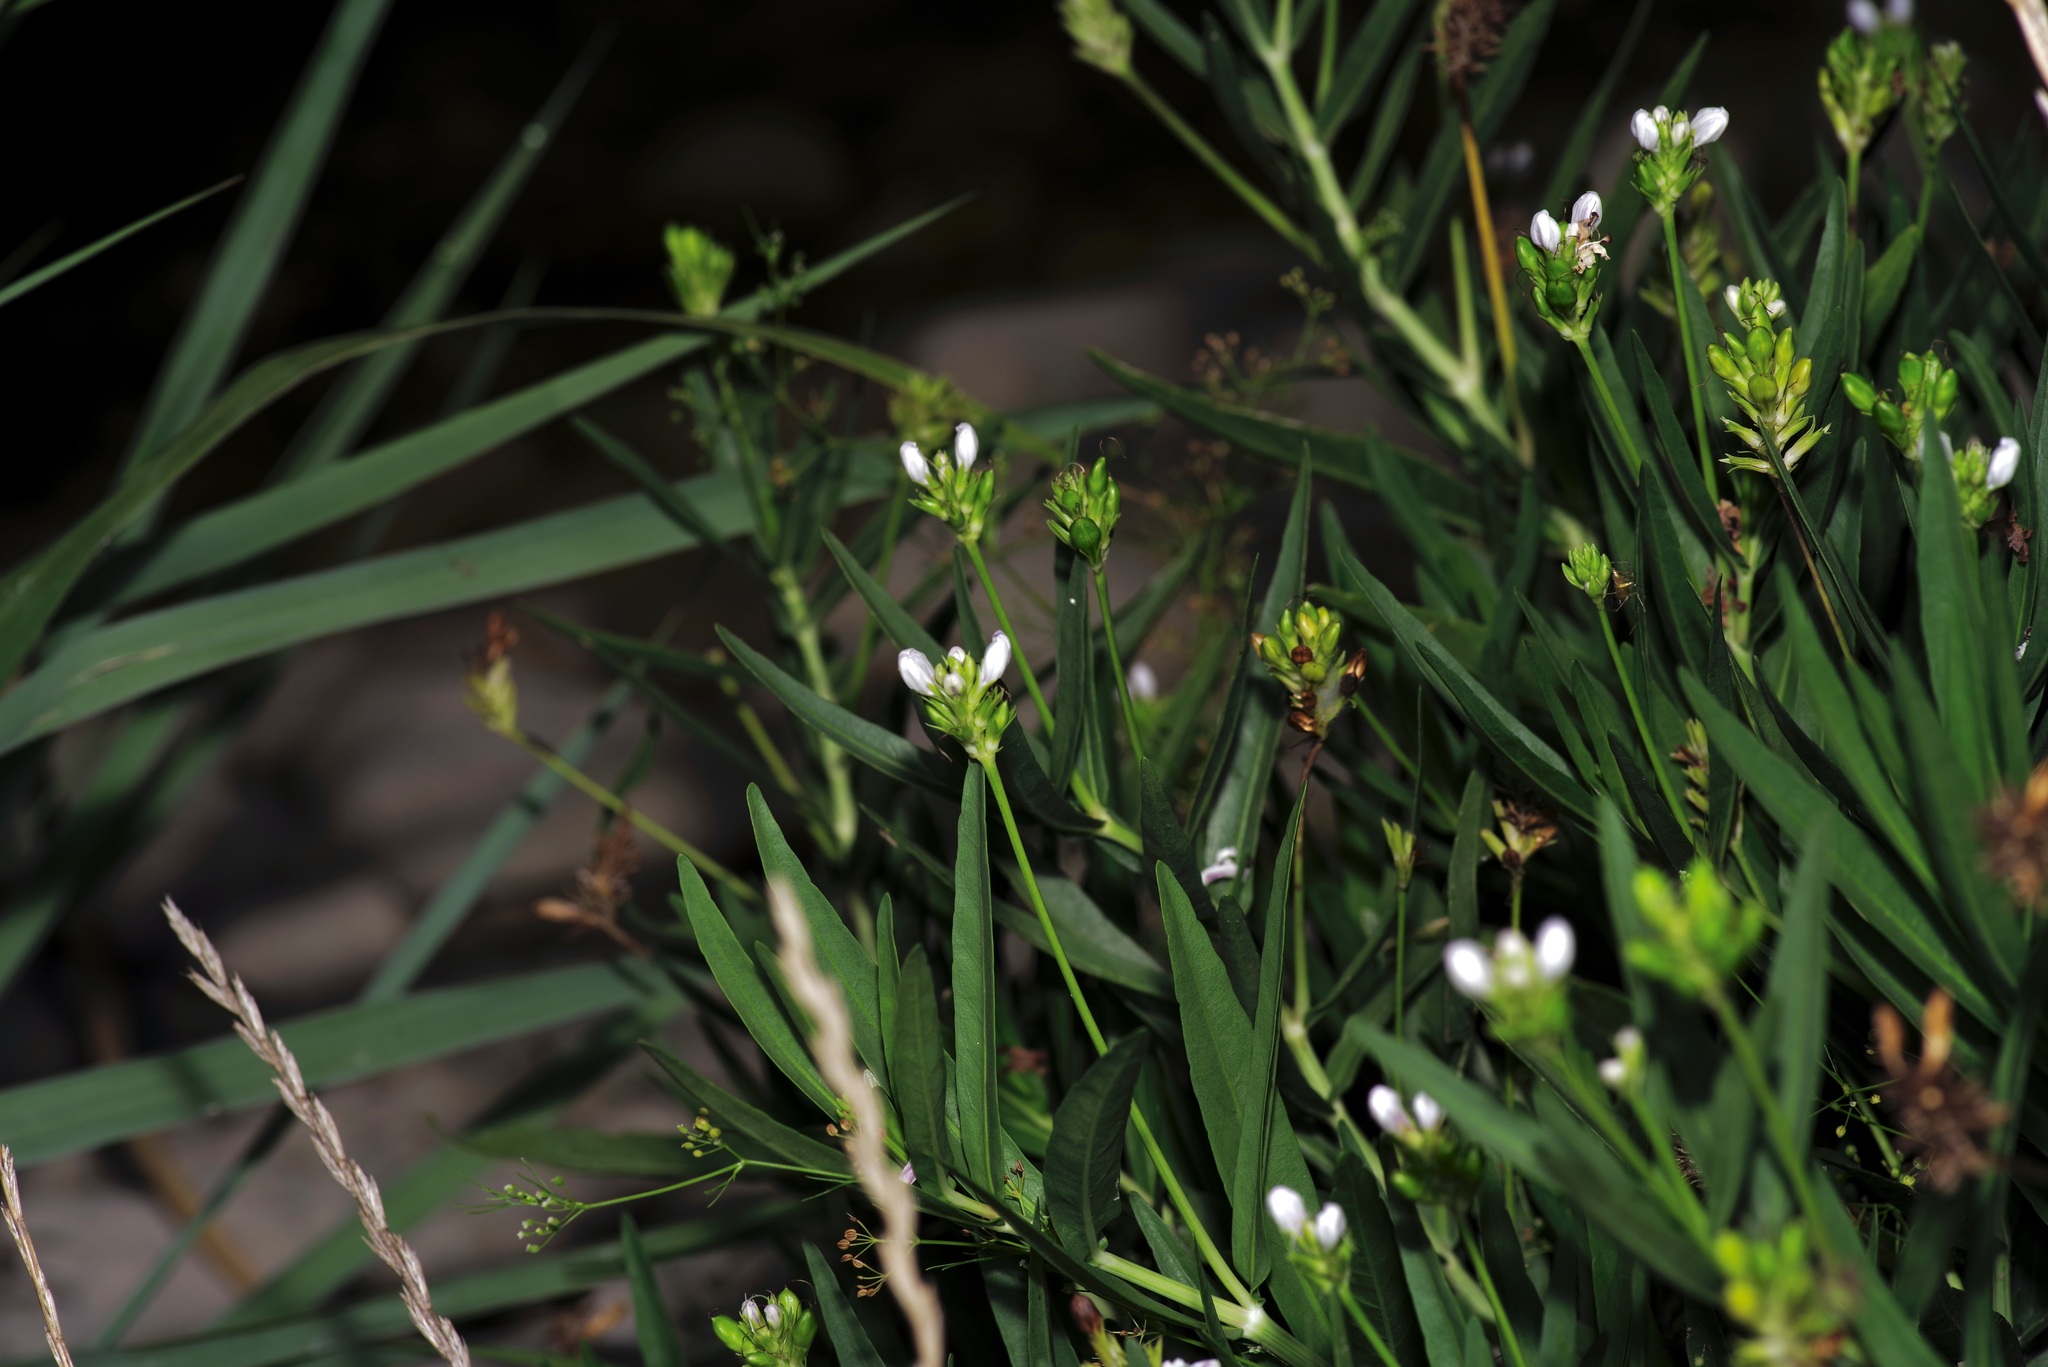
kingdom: Plantae
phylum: Tracheophyta
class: Magnoliopsida
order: Lamiales
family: Acanthaceae
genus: Dianthera
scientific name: Dianthera americana
